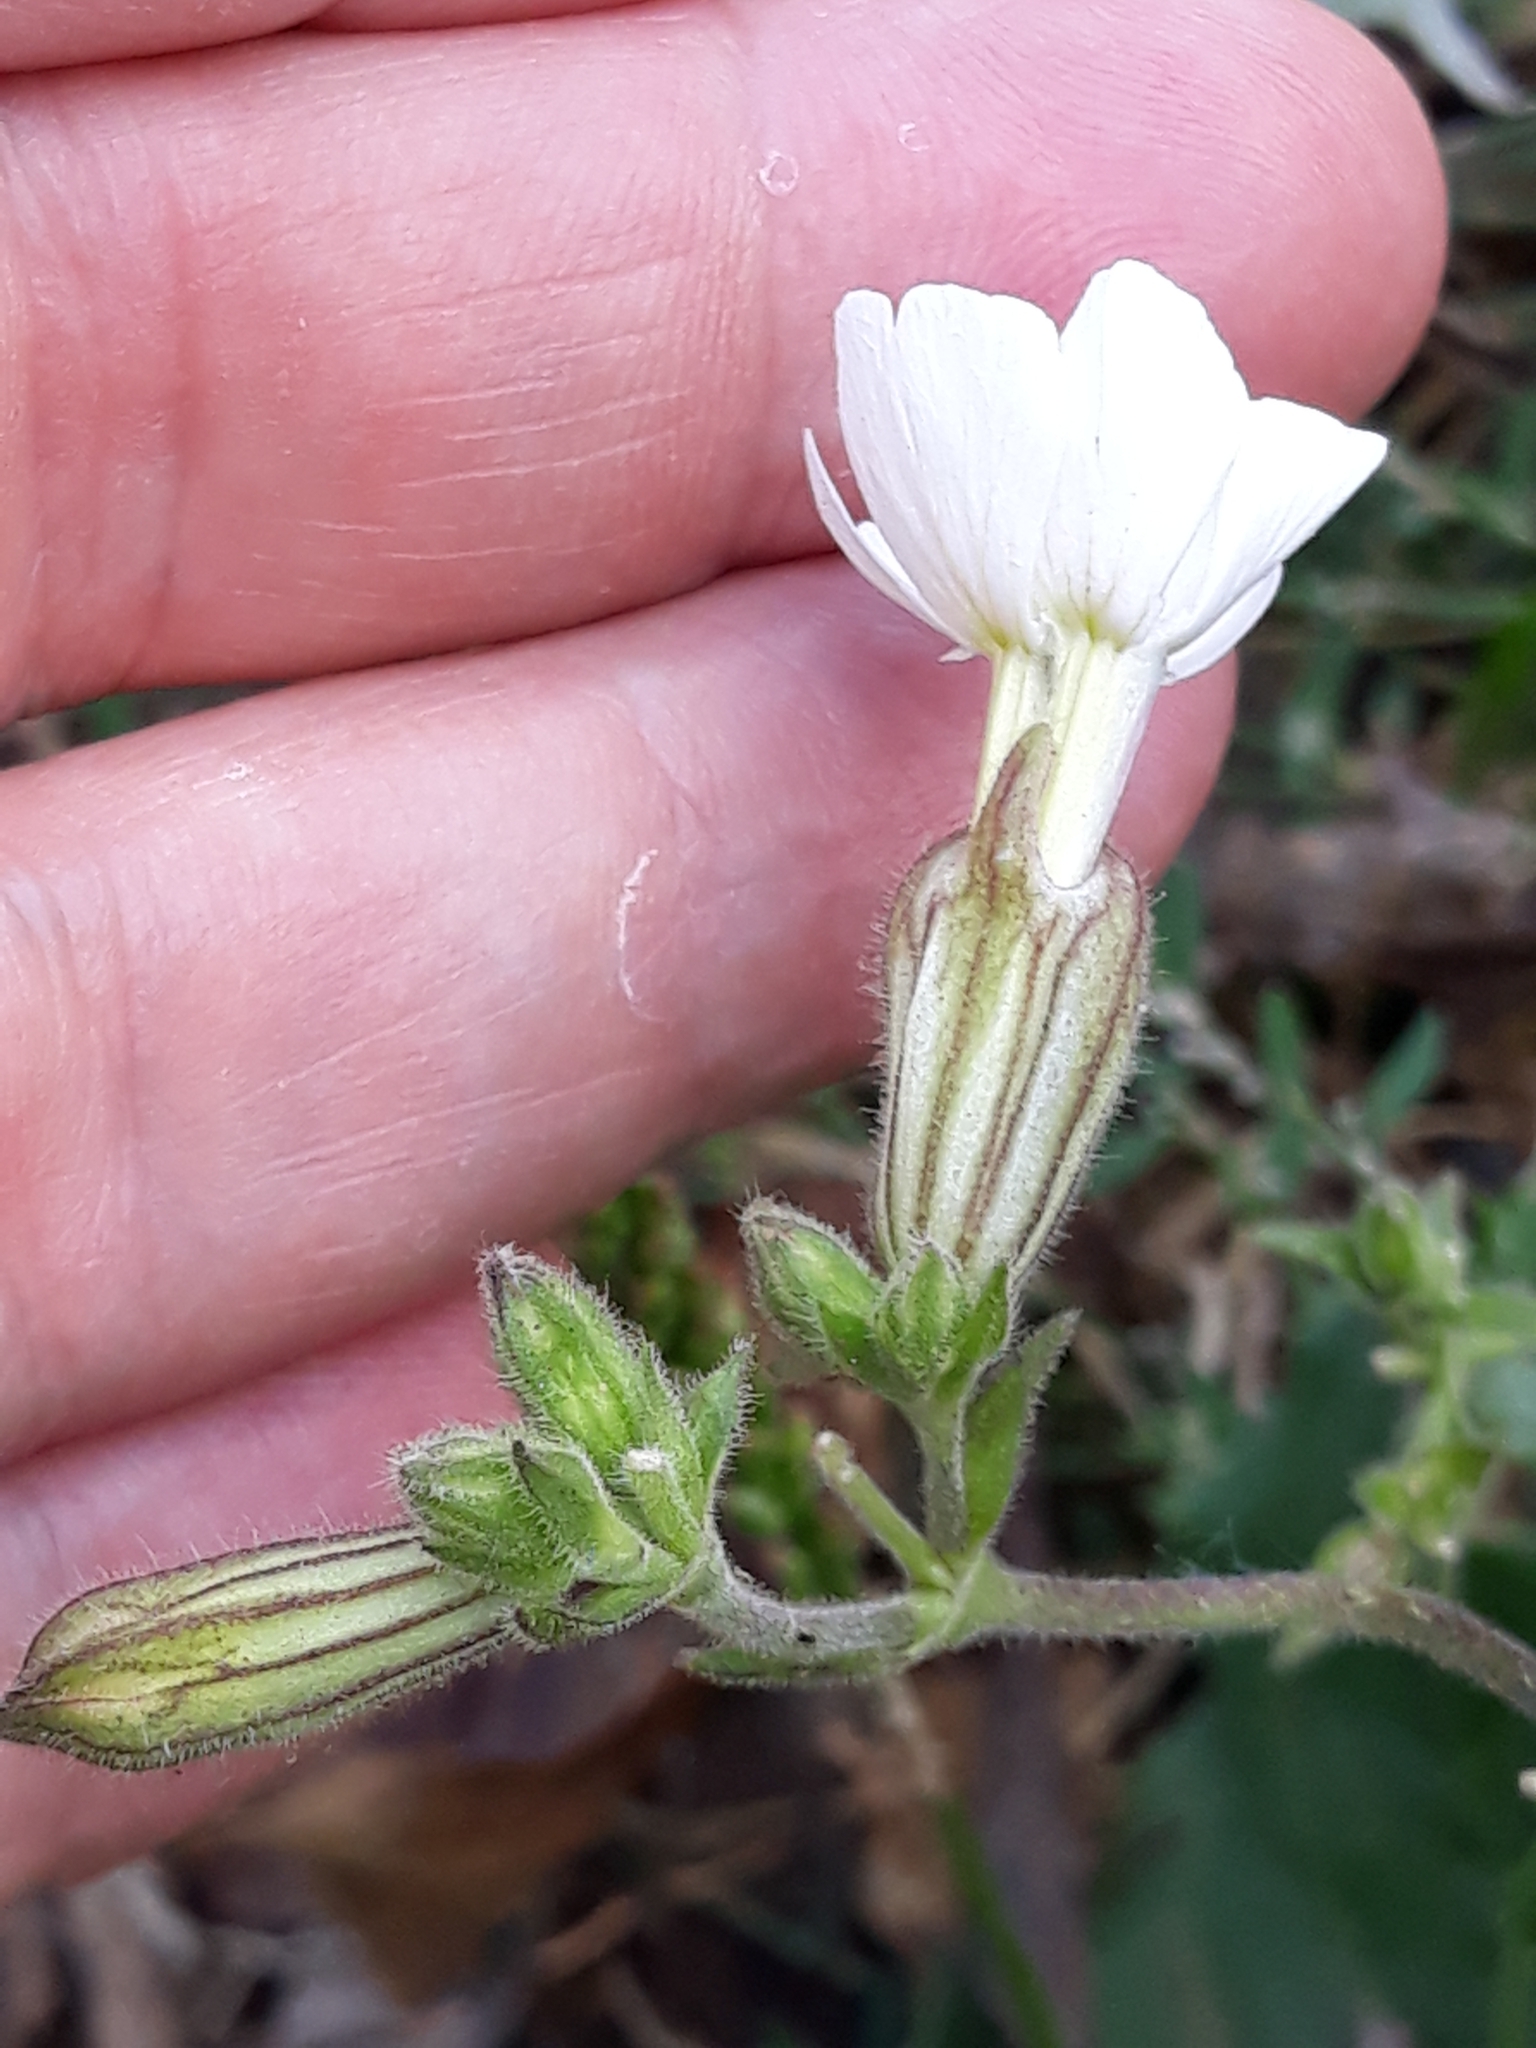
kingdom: Plantae
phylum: Tracheophyta
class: Magnoliopsida
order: Caryophyllales
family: Caryophyllaceae
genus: Silene
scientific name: Silene latifolia
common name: White campion
